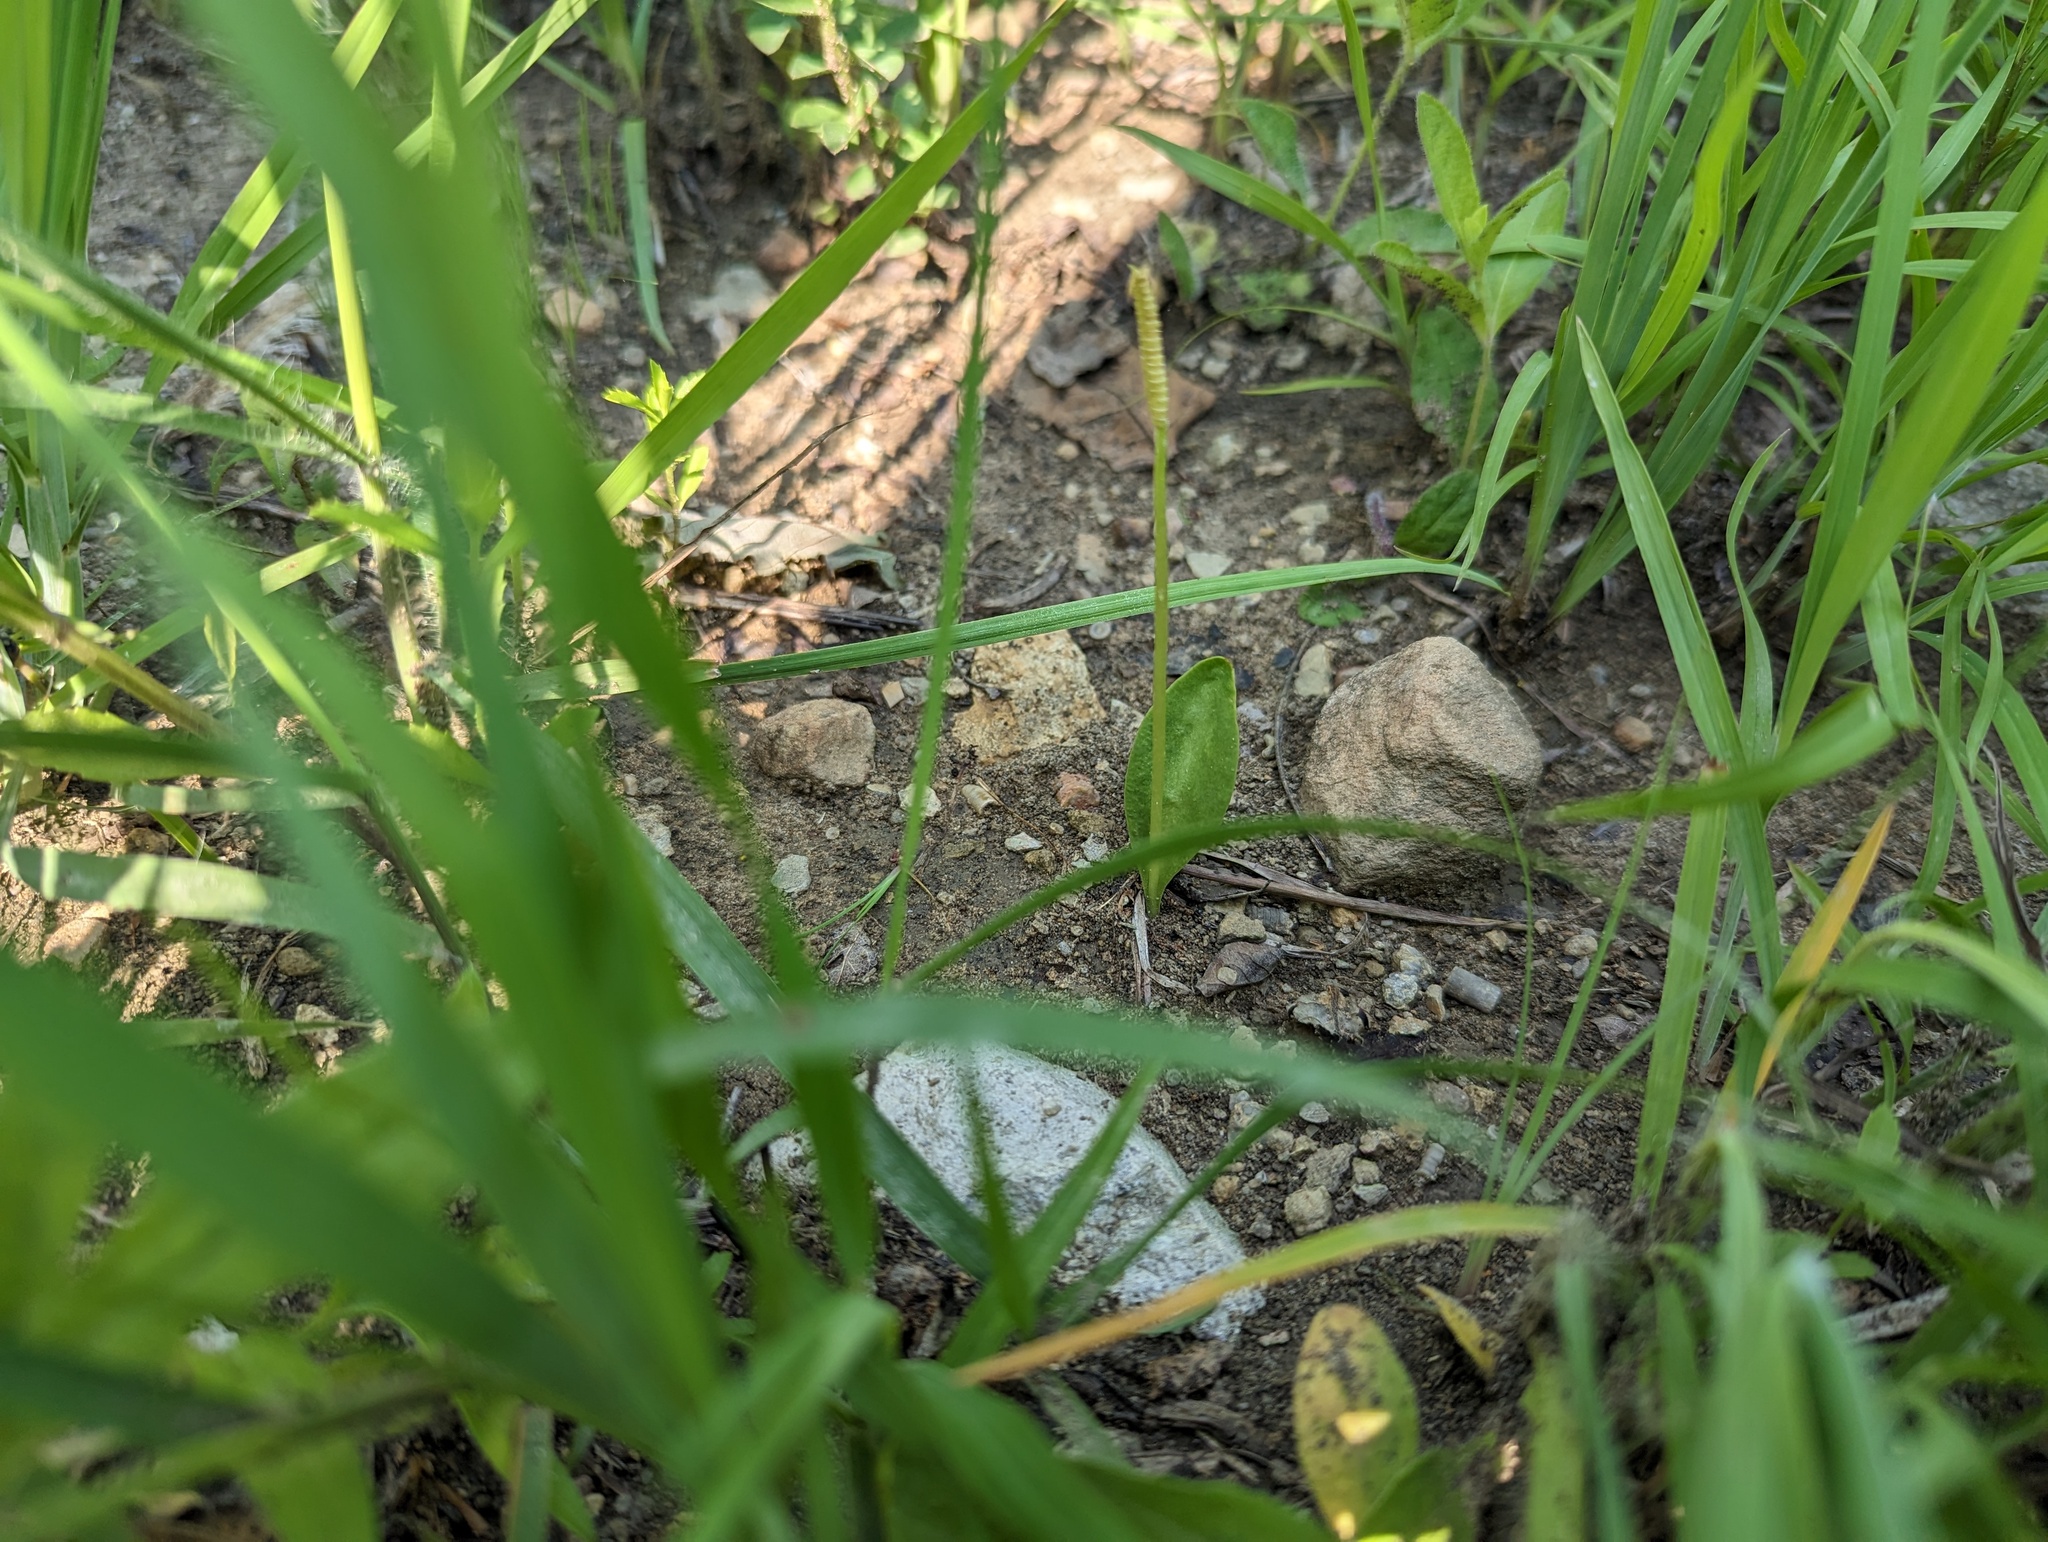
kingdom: Plantae
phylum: Tracheophyta
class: Polypodiopsida
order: Ophioglossales
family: Ophioglossaceae
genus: Ophioglossum
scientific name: Ophioglossum engelmannii
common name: Limestone adder's-tongue
